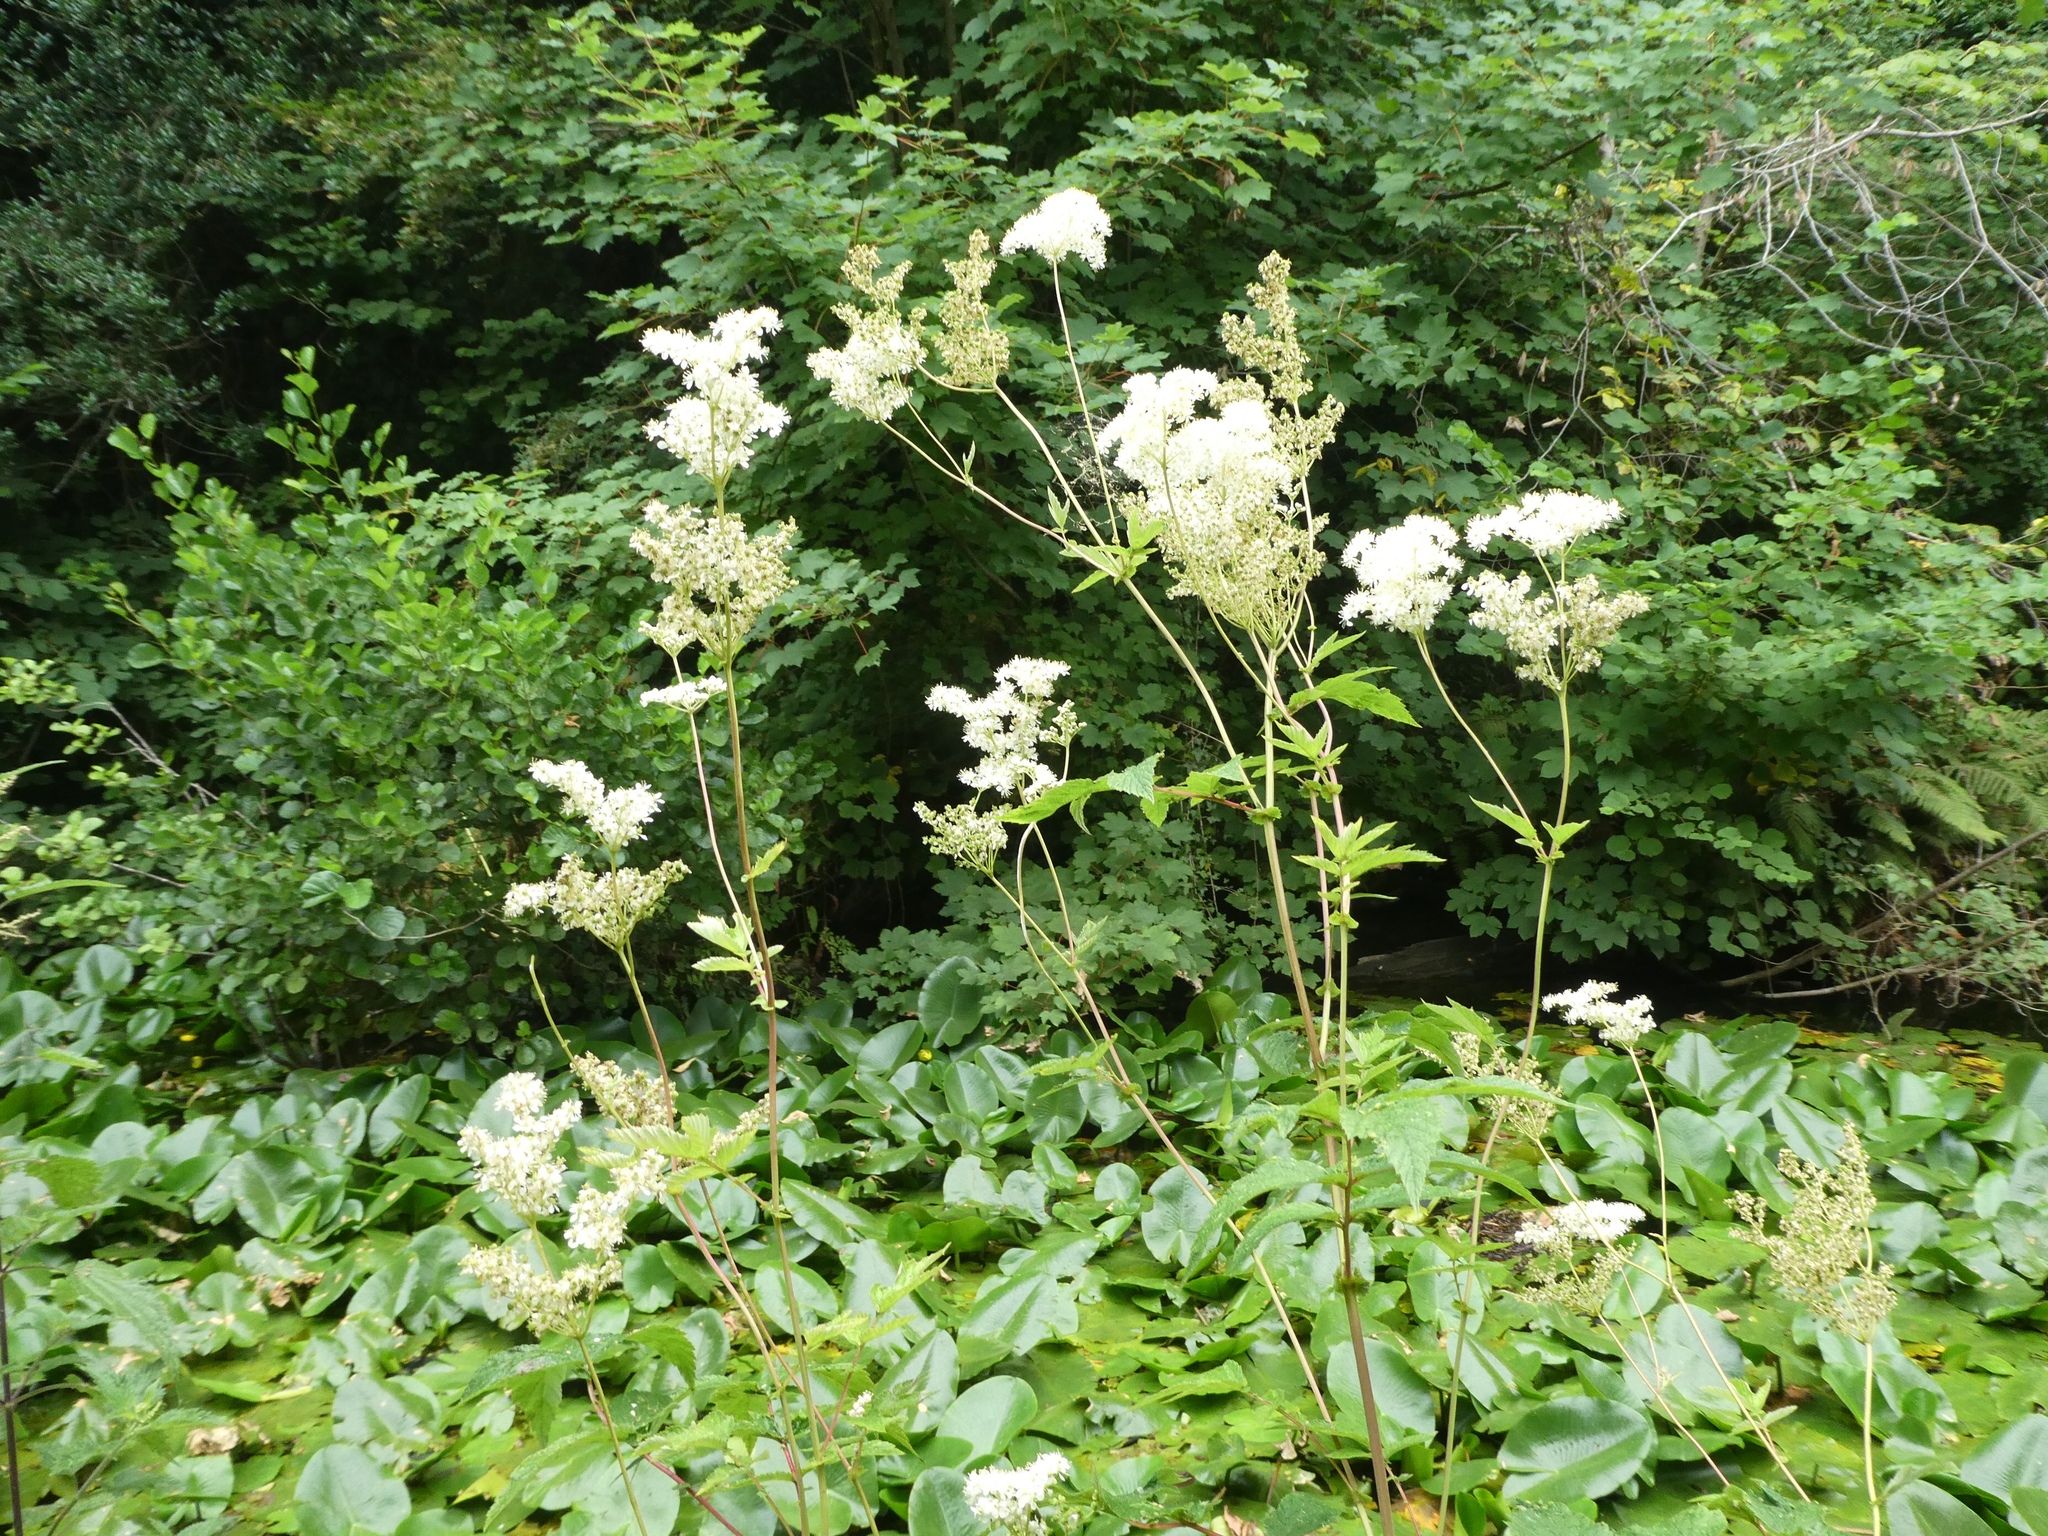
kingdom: Plantae
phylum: Tracheophyta
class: Magnoliopsida
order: Rosales
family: Rosaceae
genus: Filipendula
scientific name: Filipendula ulmaria
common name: Meadowsweet
